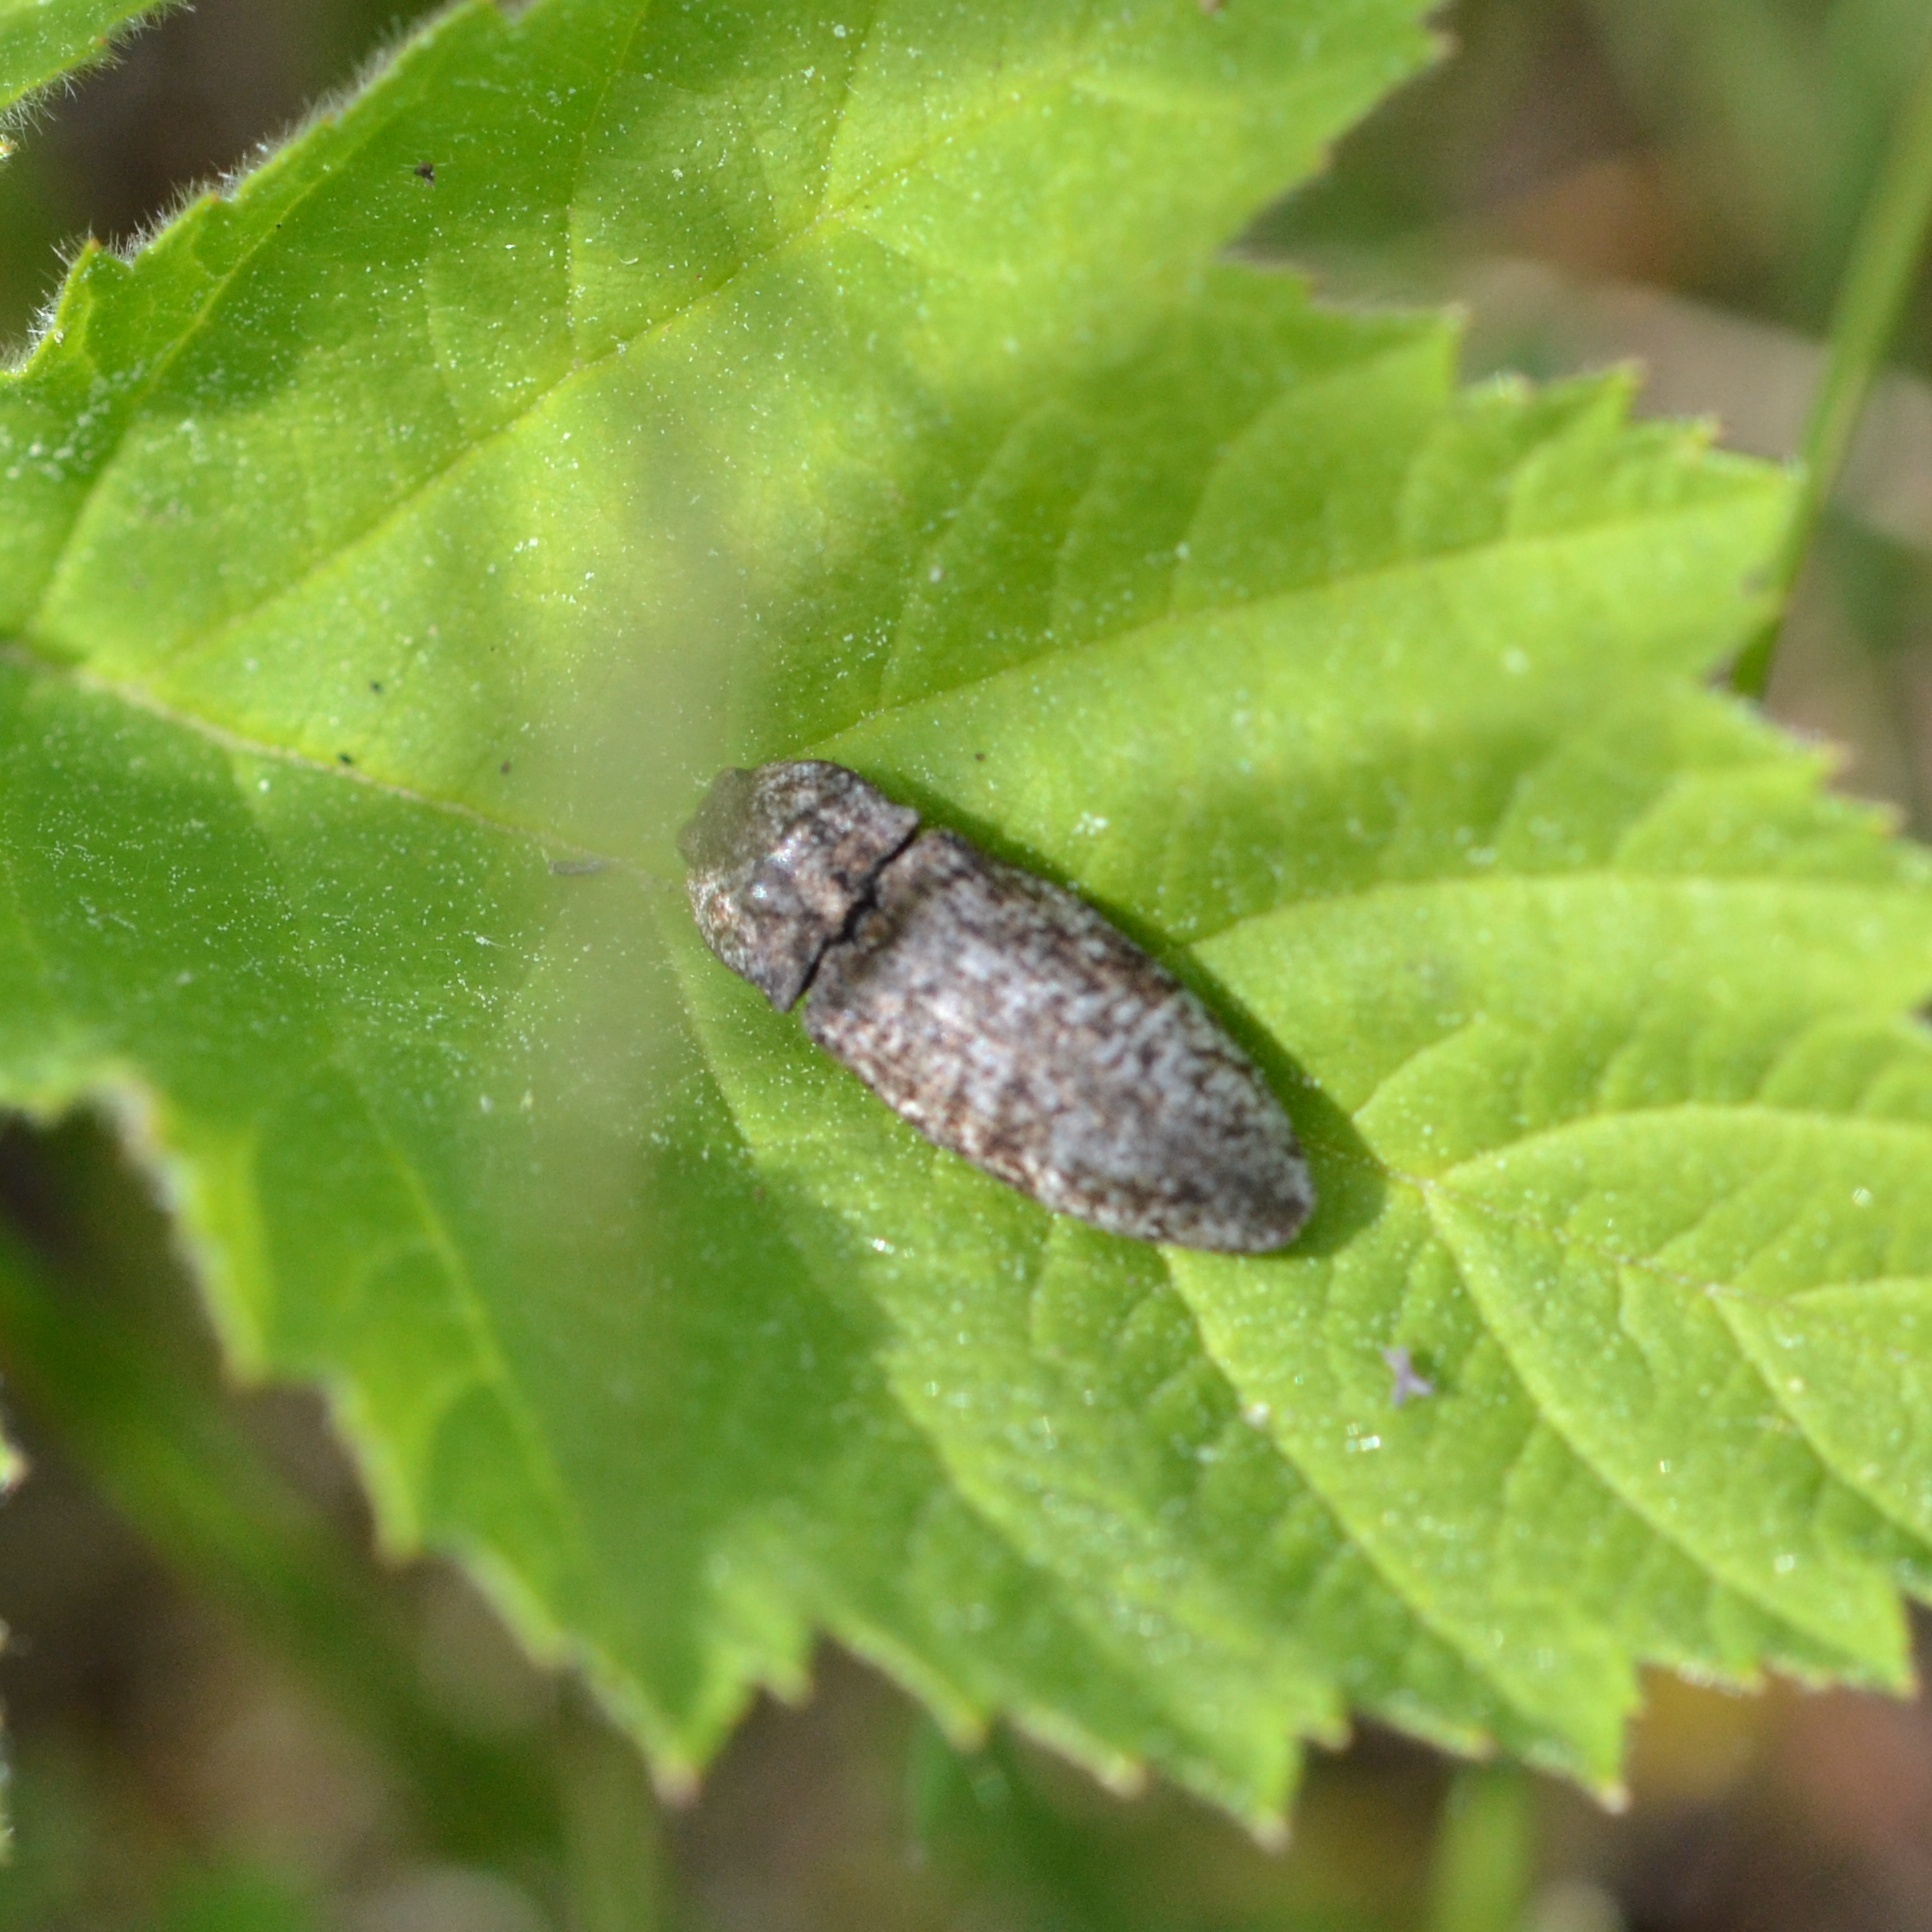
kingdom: Animalia
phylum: Arthropoda
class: Insecta
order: Coleoptera
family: Elateridae
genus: Agrypnus
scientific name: Agrypnus murinus
